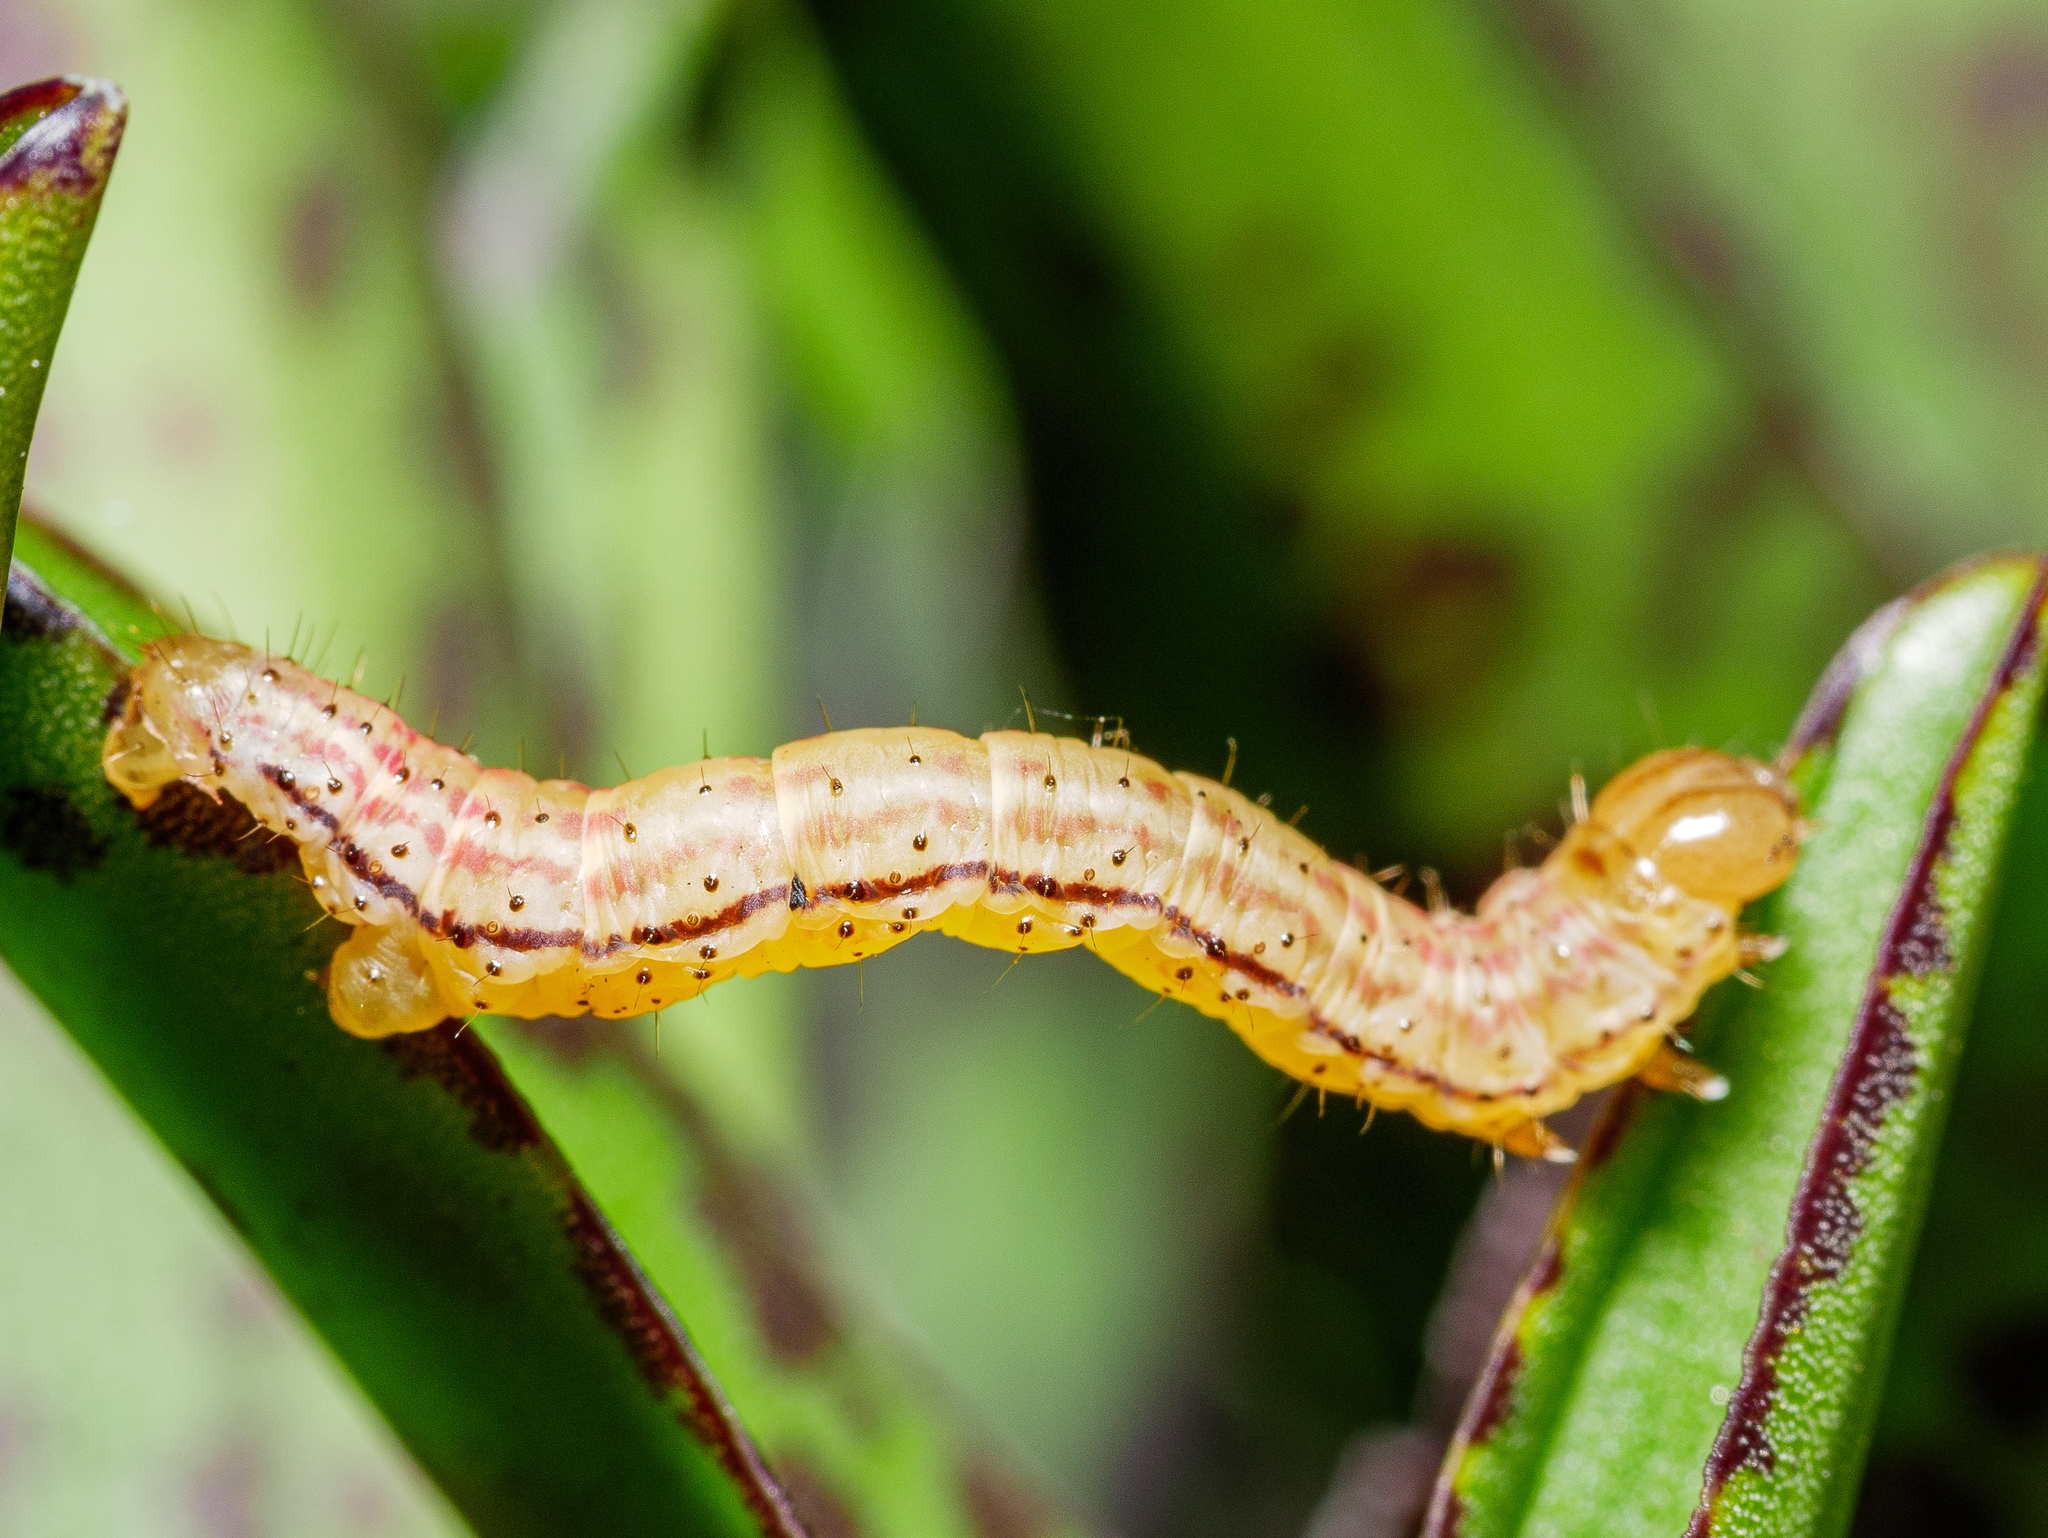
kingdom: Animalia
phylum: Arthropoda
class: Insecta
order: Lepidoptera
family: Geometridae
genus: Epiphryne
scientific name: Epiphryne verriculata
